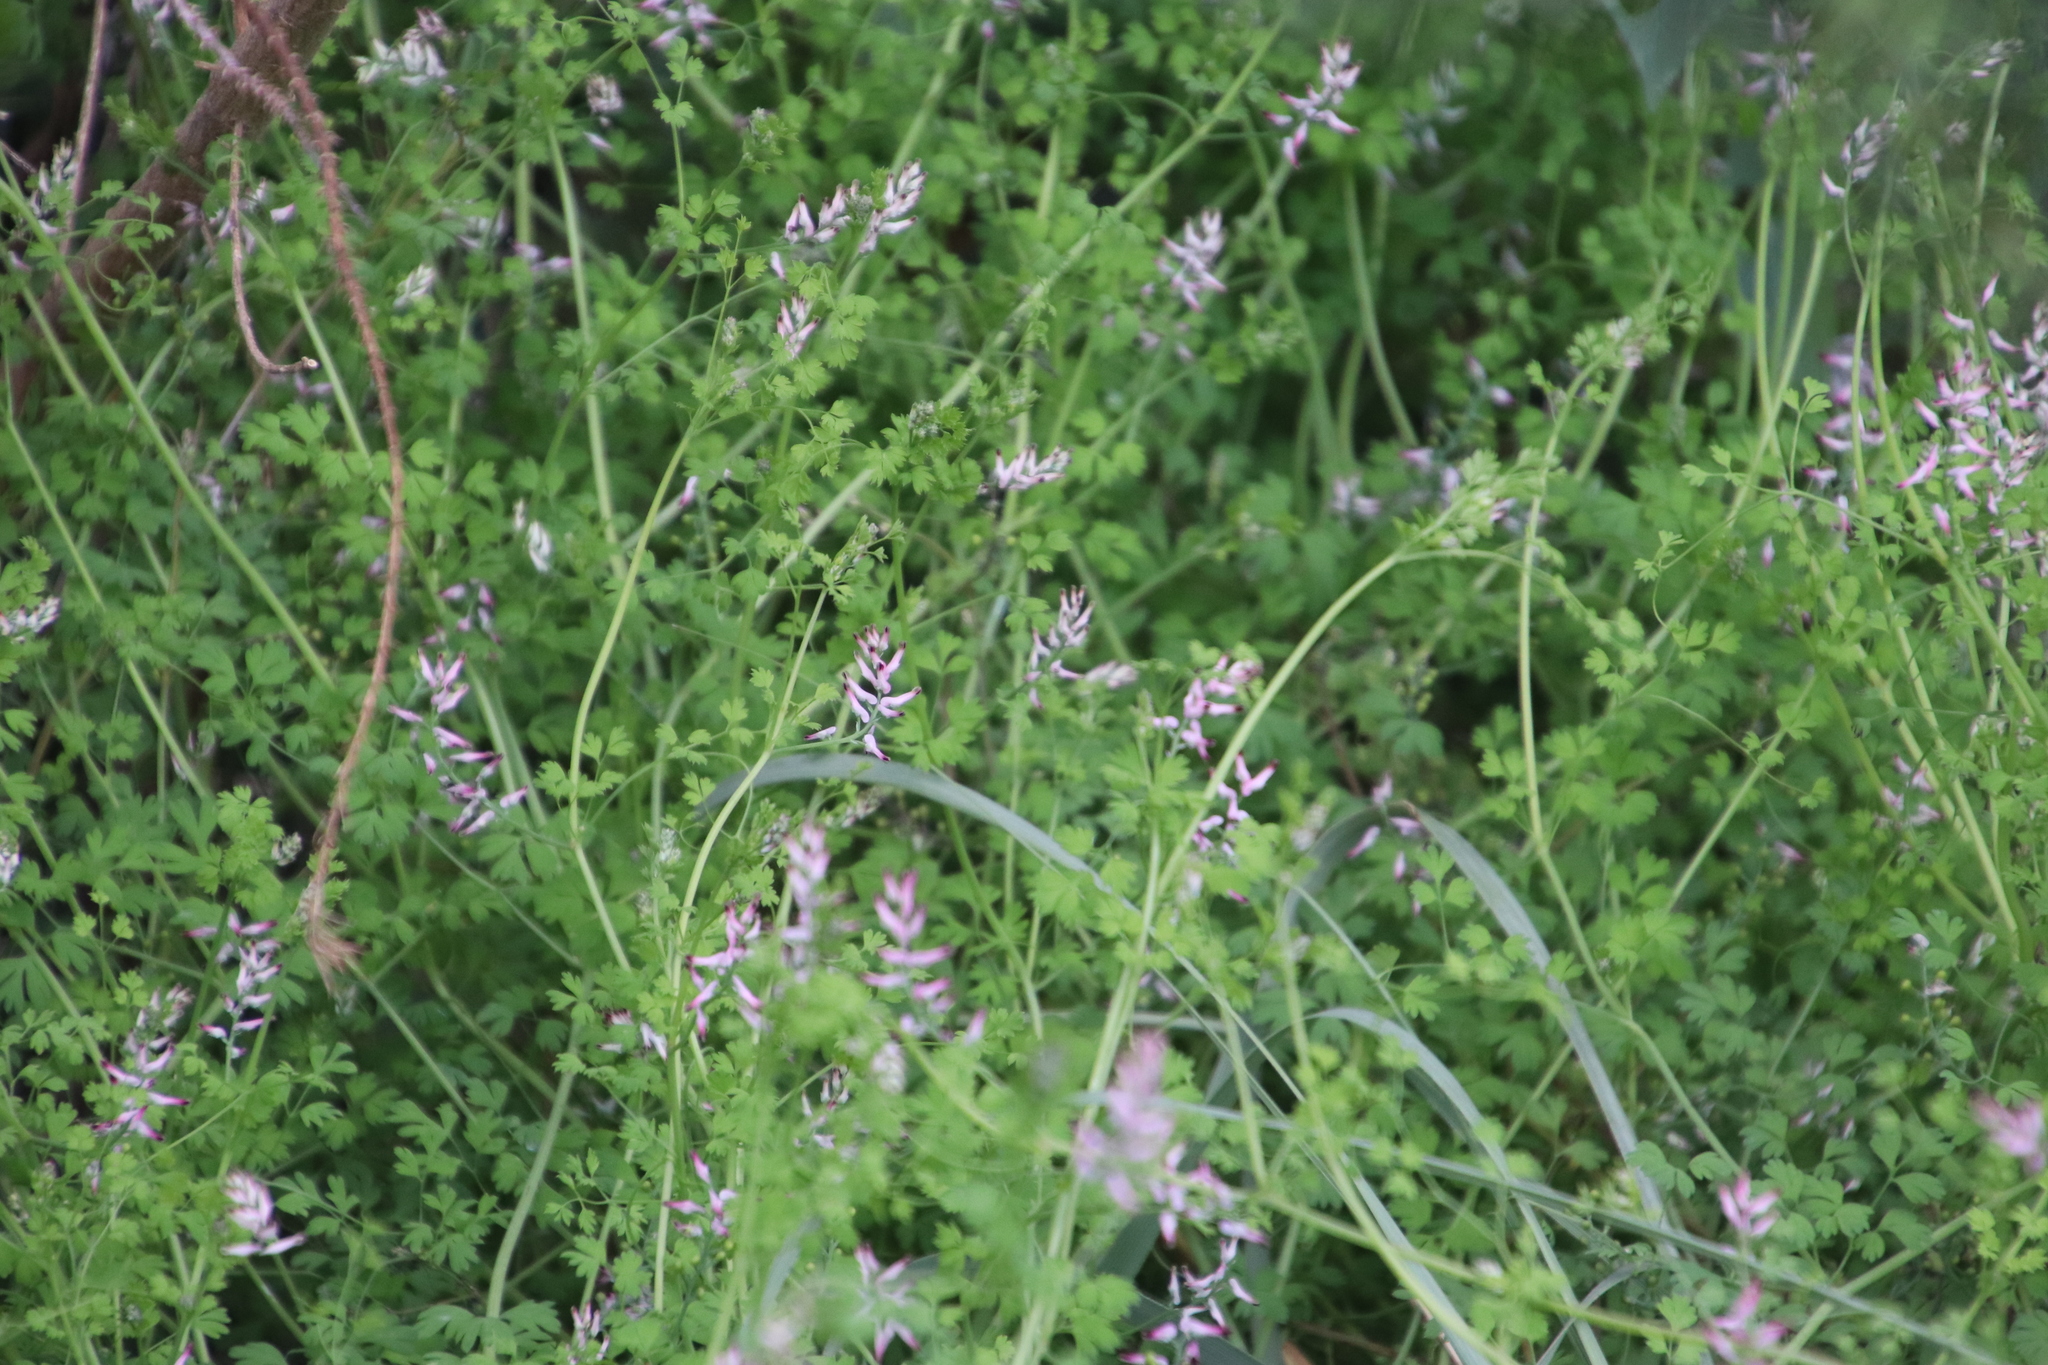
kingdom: Plantae
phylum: Tracheophyta
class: Magnoliopsida
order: Ranunculales
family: Papaveraceae
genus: Fumaria
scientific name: Fumaria muralis
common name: Common ramping-fumitory
